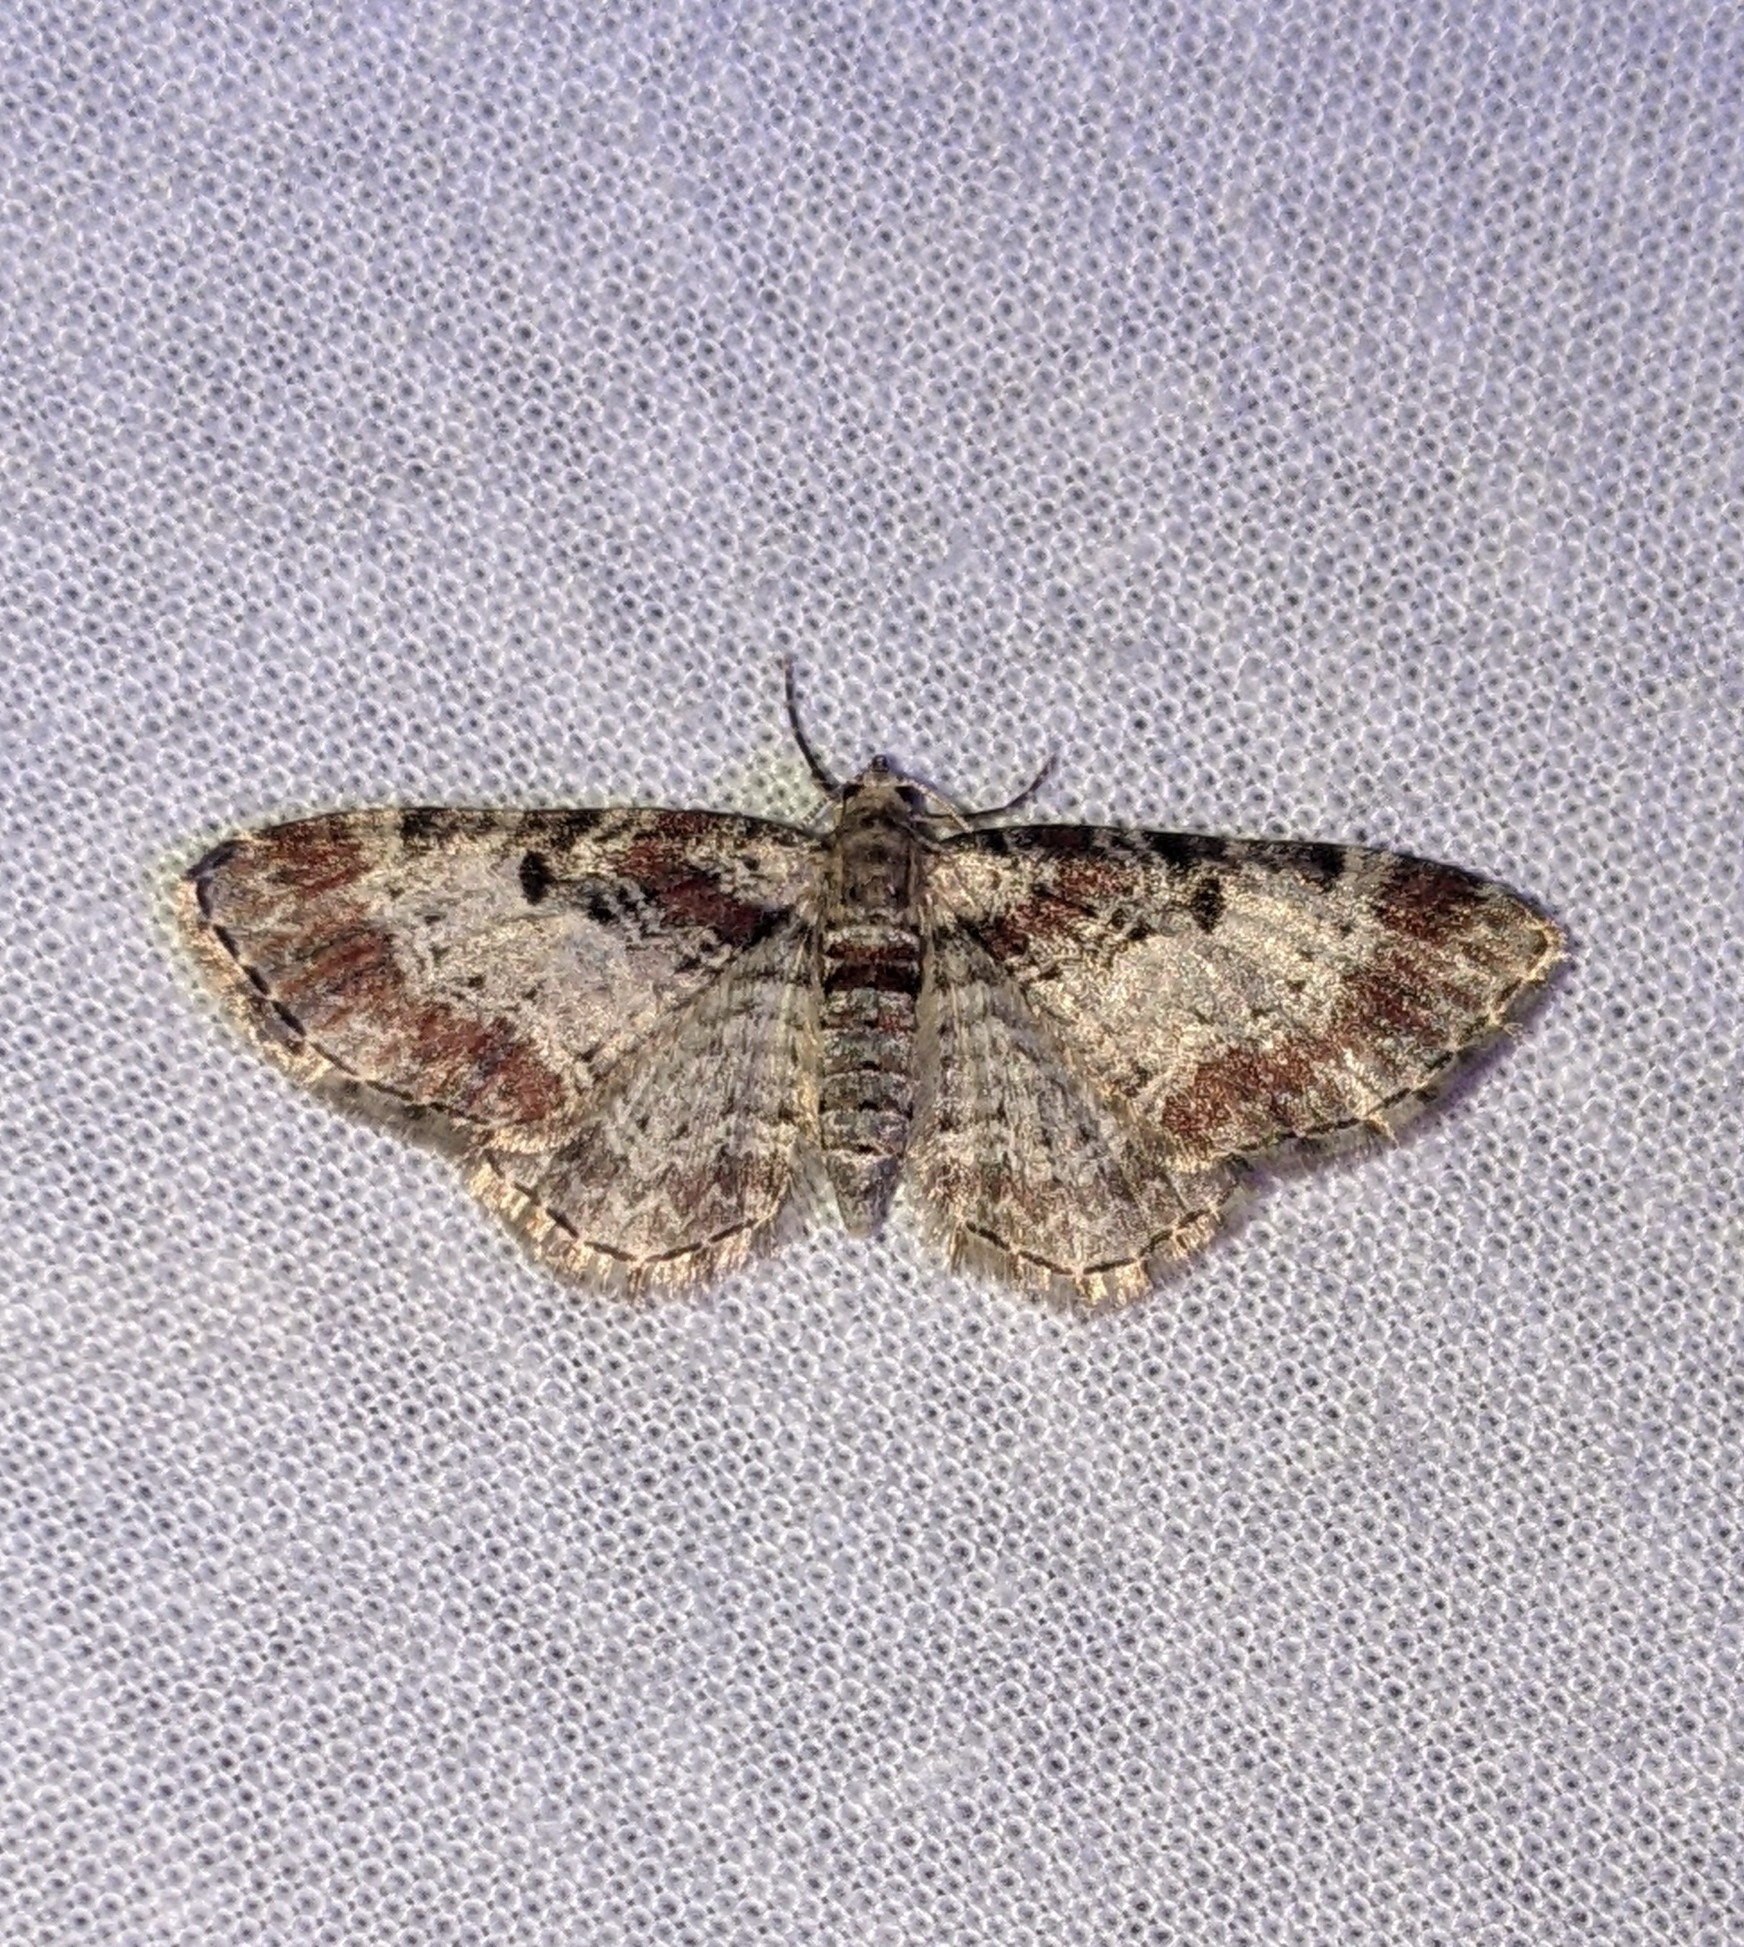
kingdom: Animalia
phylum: Arthropoda
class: Insecta
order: Lepidoptera
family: Geometridae
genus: Eupithecia
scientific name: Eupithecia johnstoni
